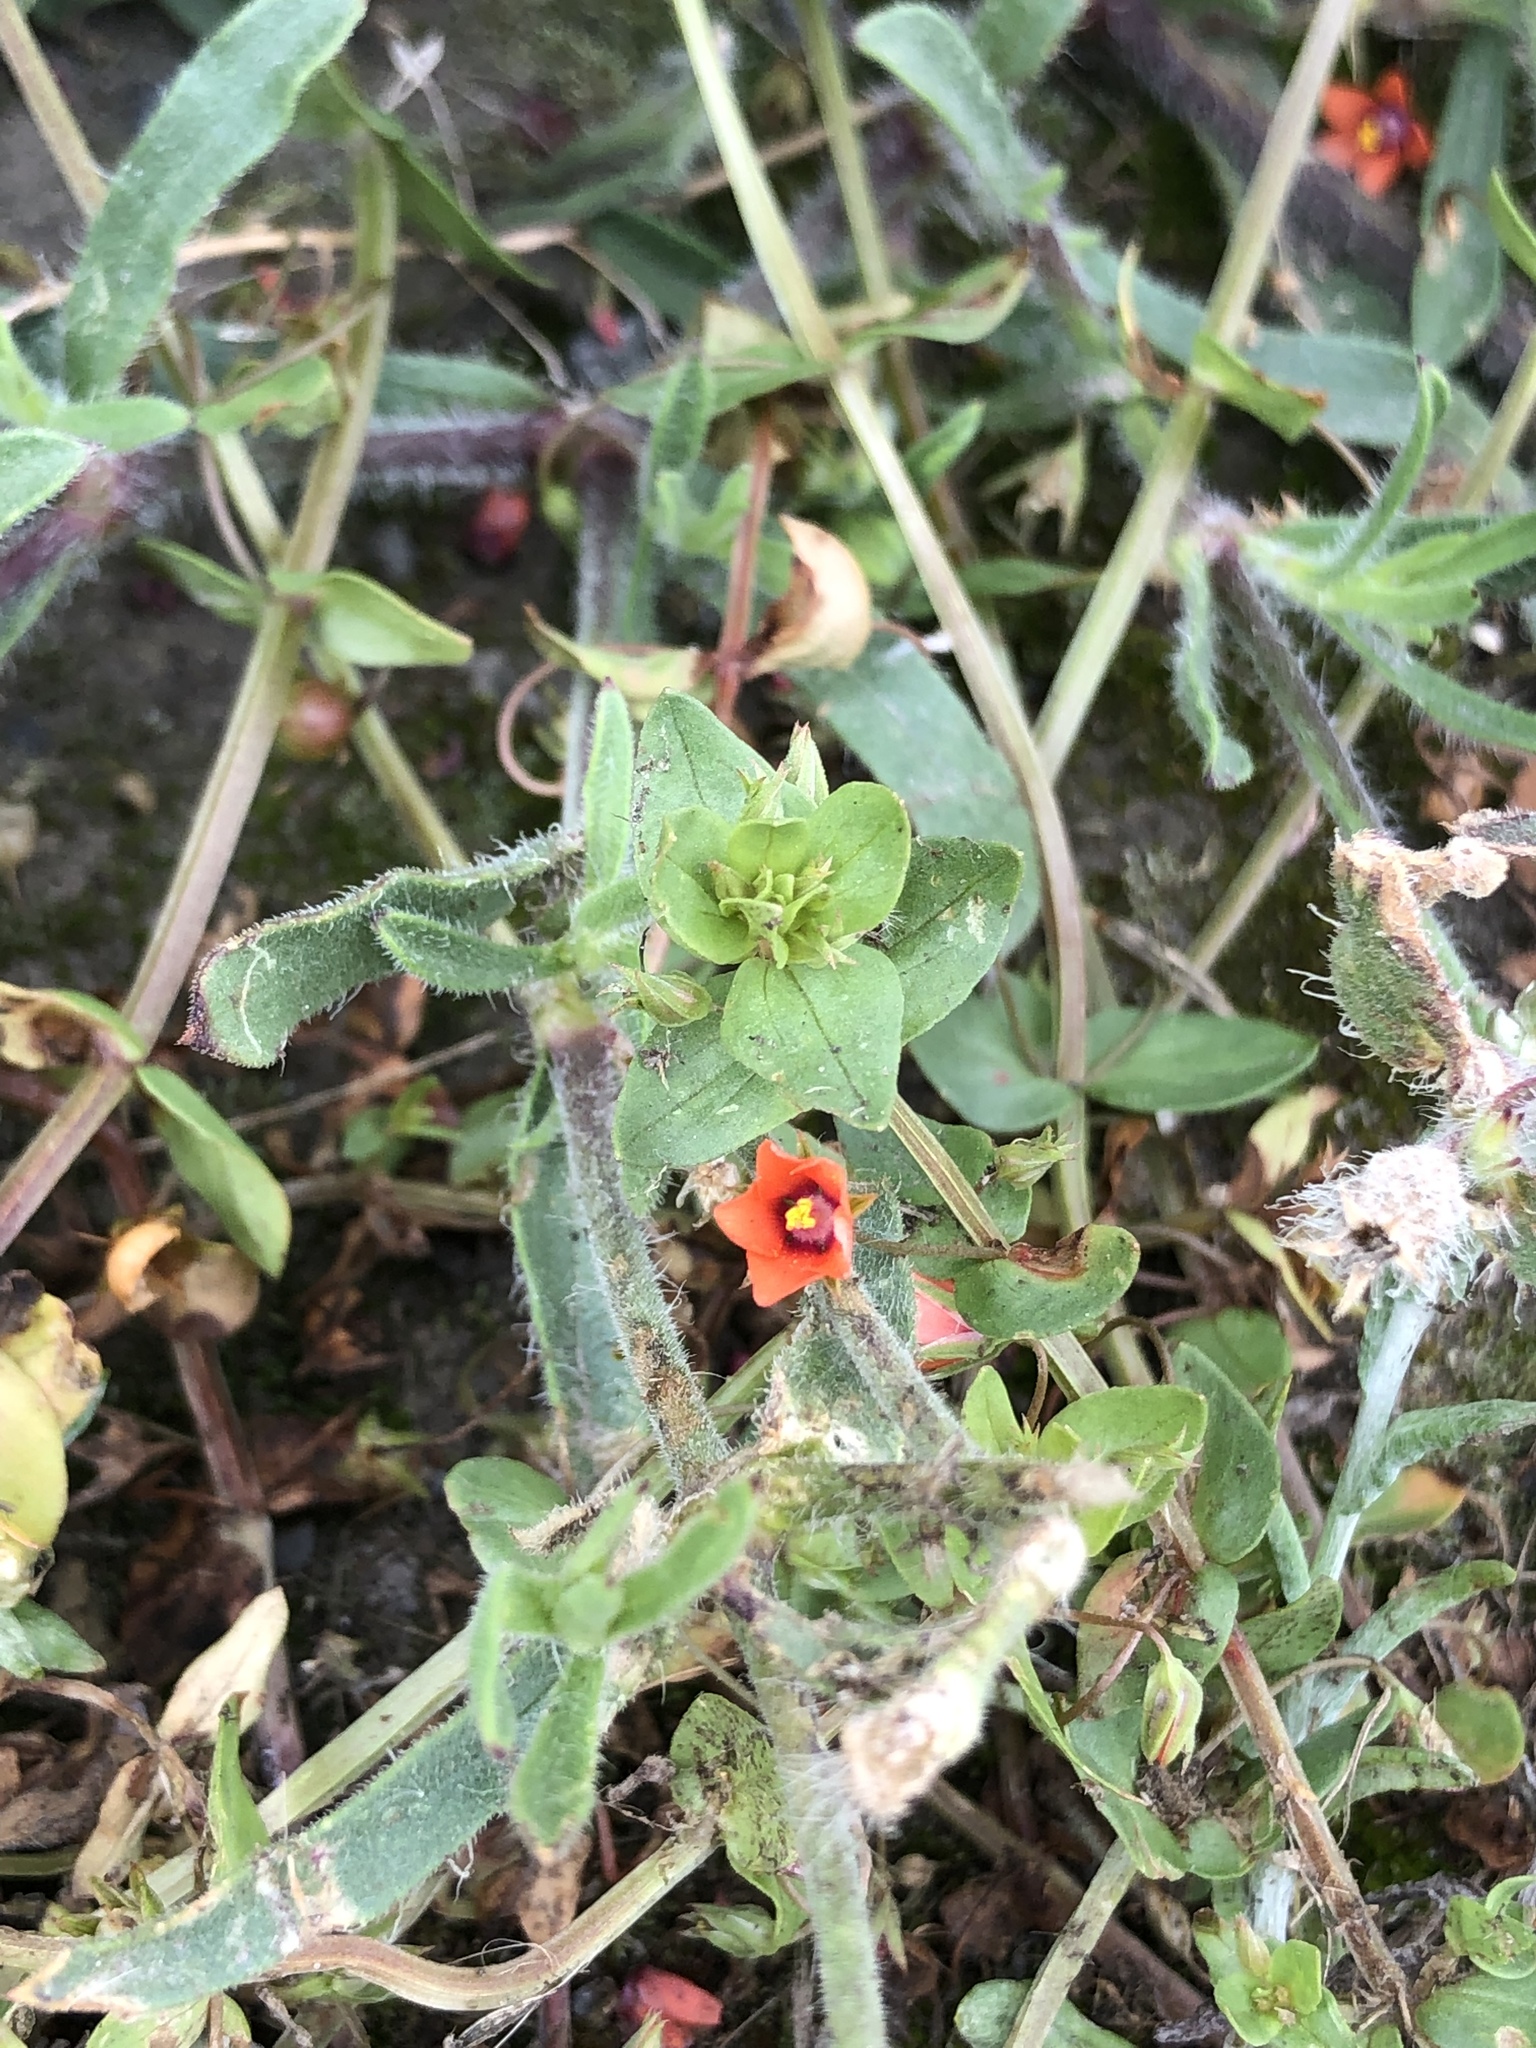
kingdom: Plantae
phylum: Tracheophyta
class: Magnoliopsida
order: Ericales
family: Primulaceae
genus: Lysimachia
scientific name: Lysimachia arvensis
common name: Scarlet pimpernel
